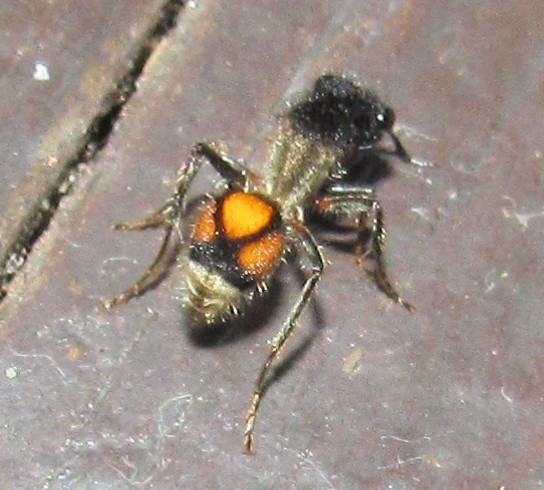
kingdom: Animalia
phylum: Arthropoda
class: Insecta
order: Hymenoptera
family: Mutillidae
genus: Lophomutilla
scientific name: Lophomutilla prionophora
